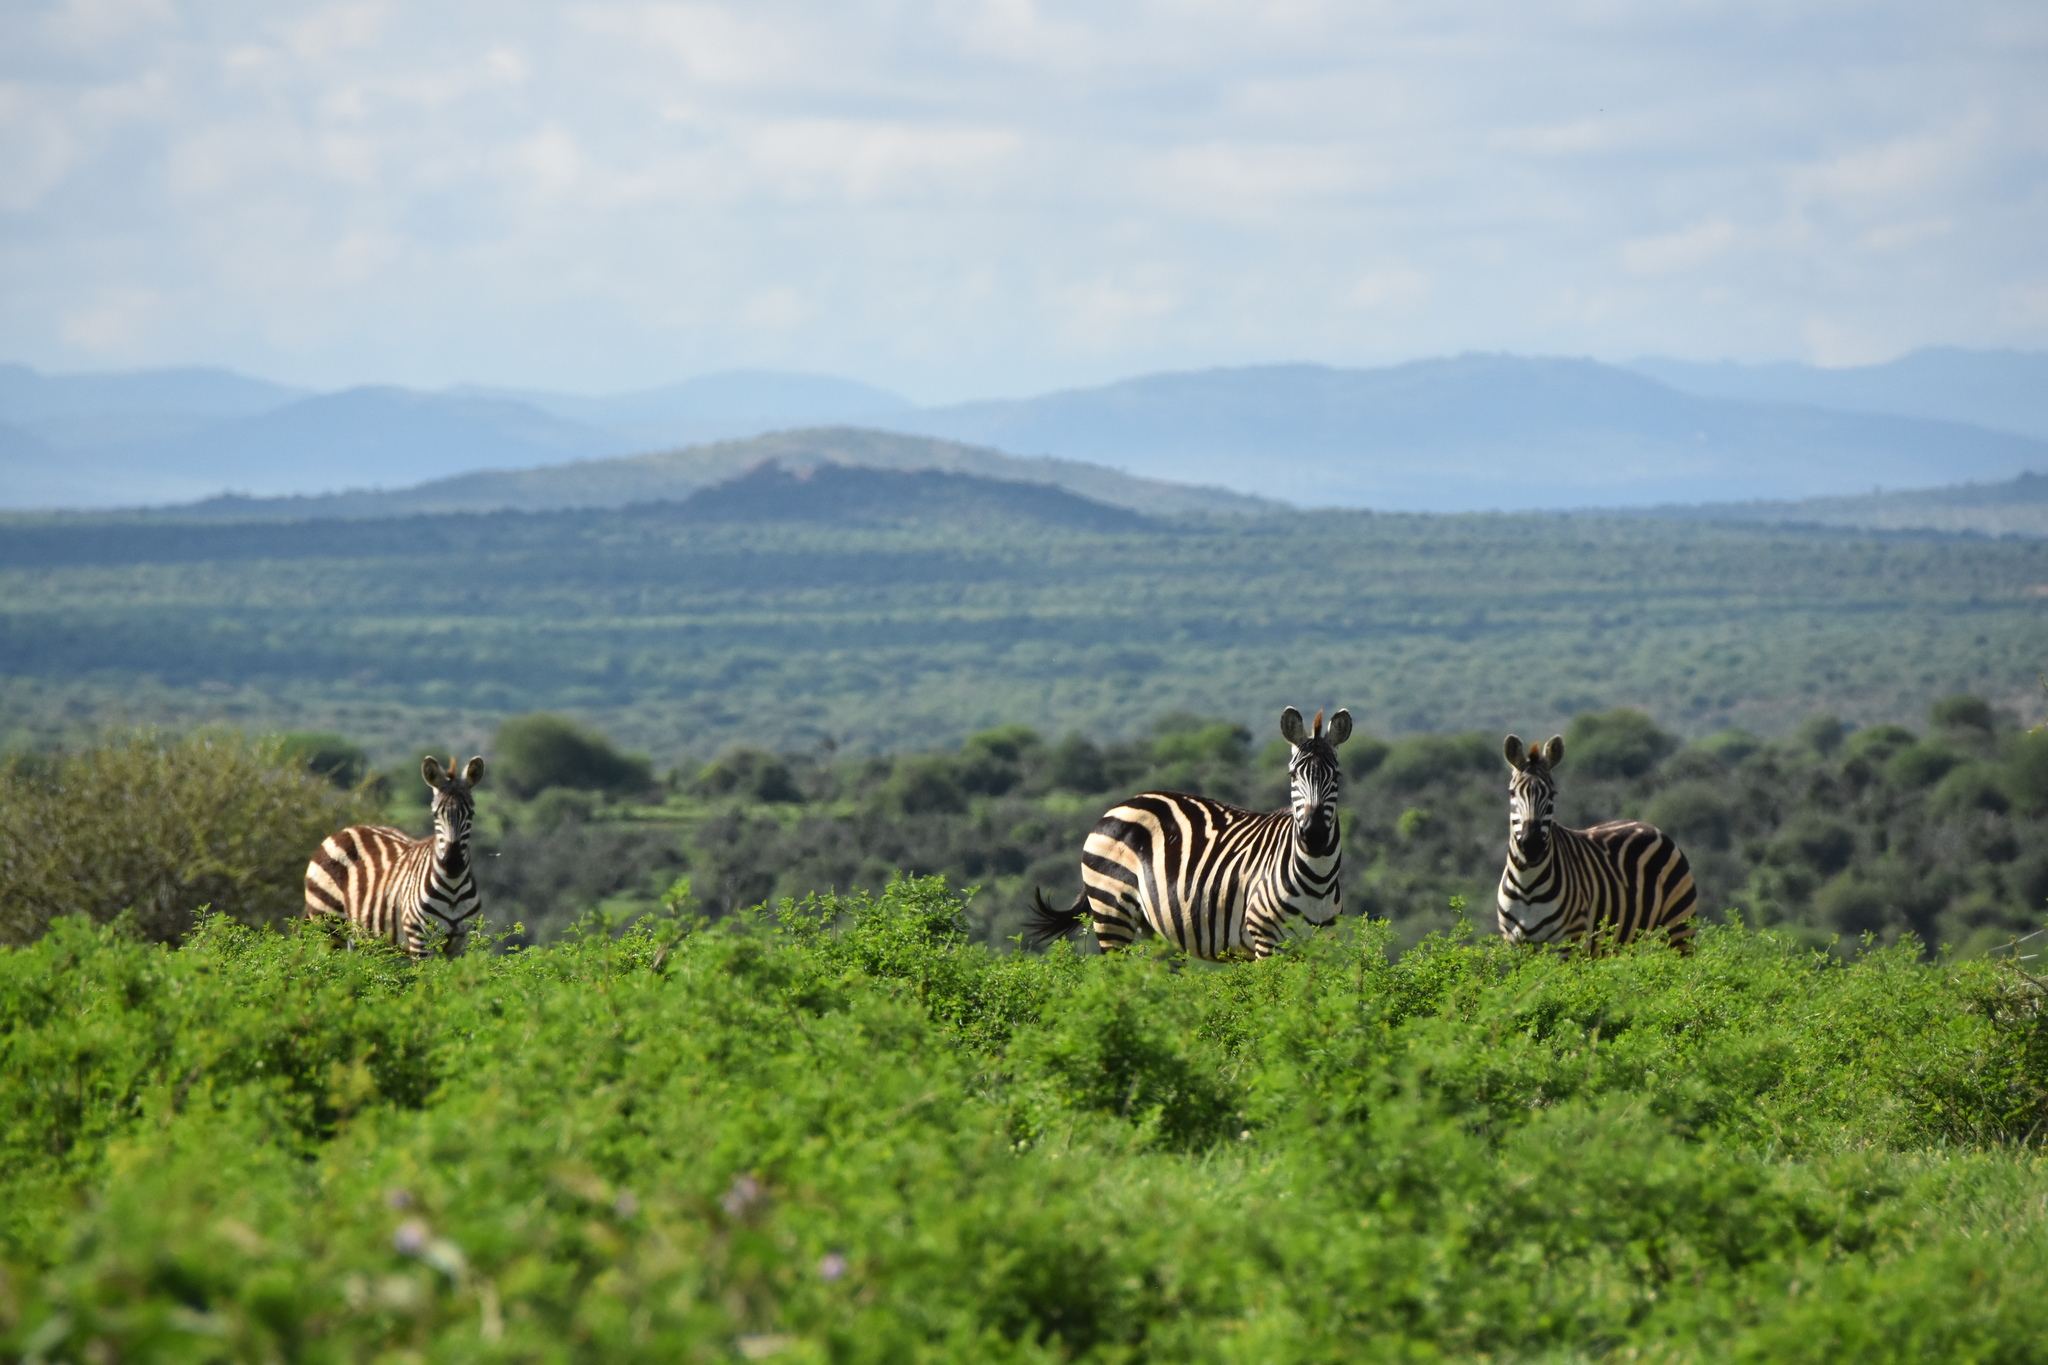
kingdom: Animalia
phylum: Chordata
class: Mammalia
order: Perissodactyla
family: Equidae
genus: Equus
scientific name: Equus quagga
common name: Plains zebra
